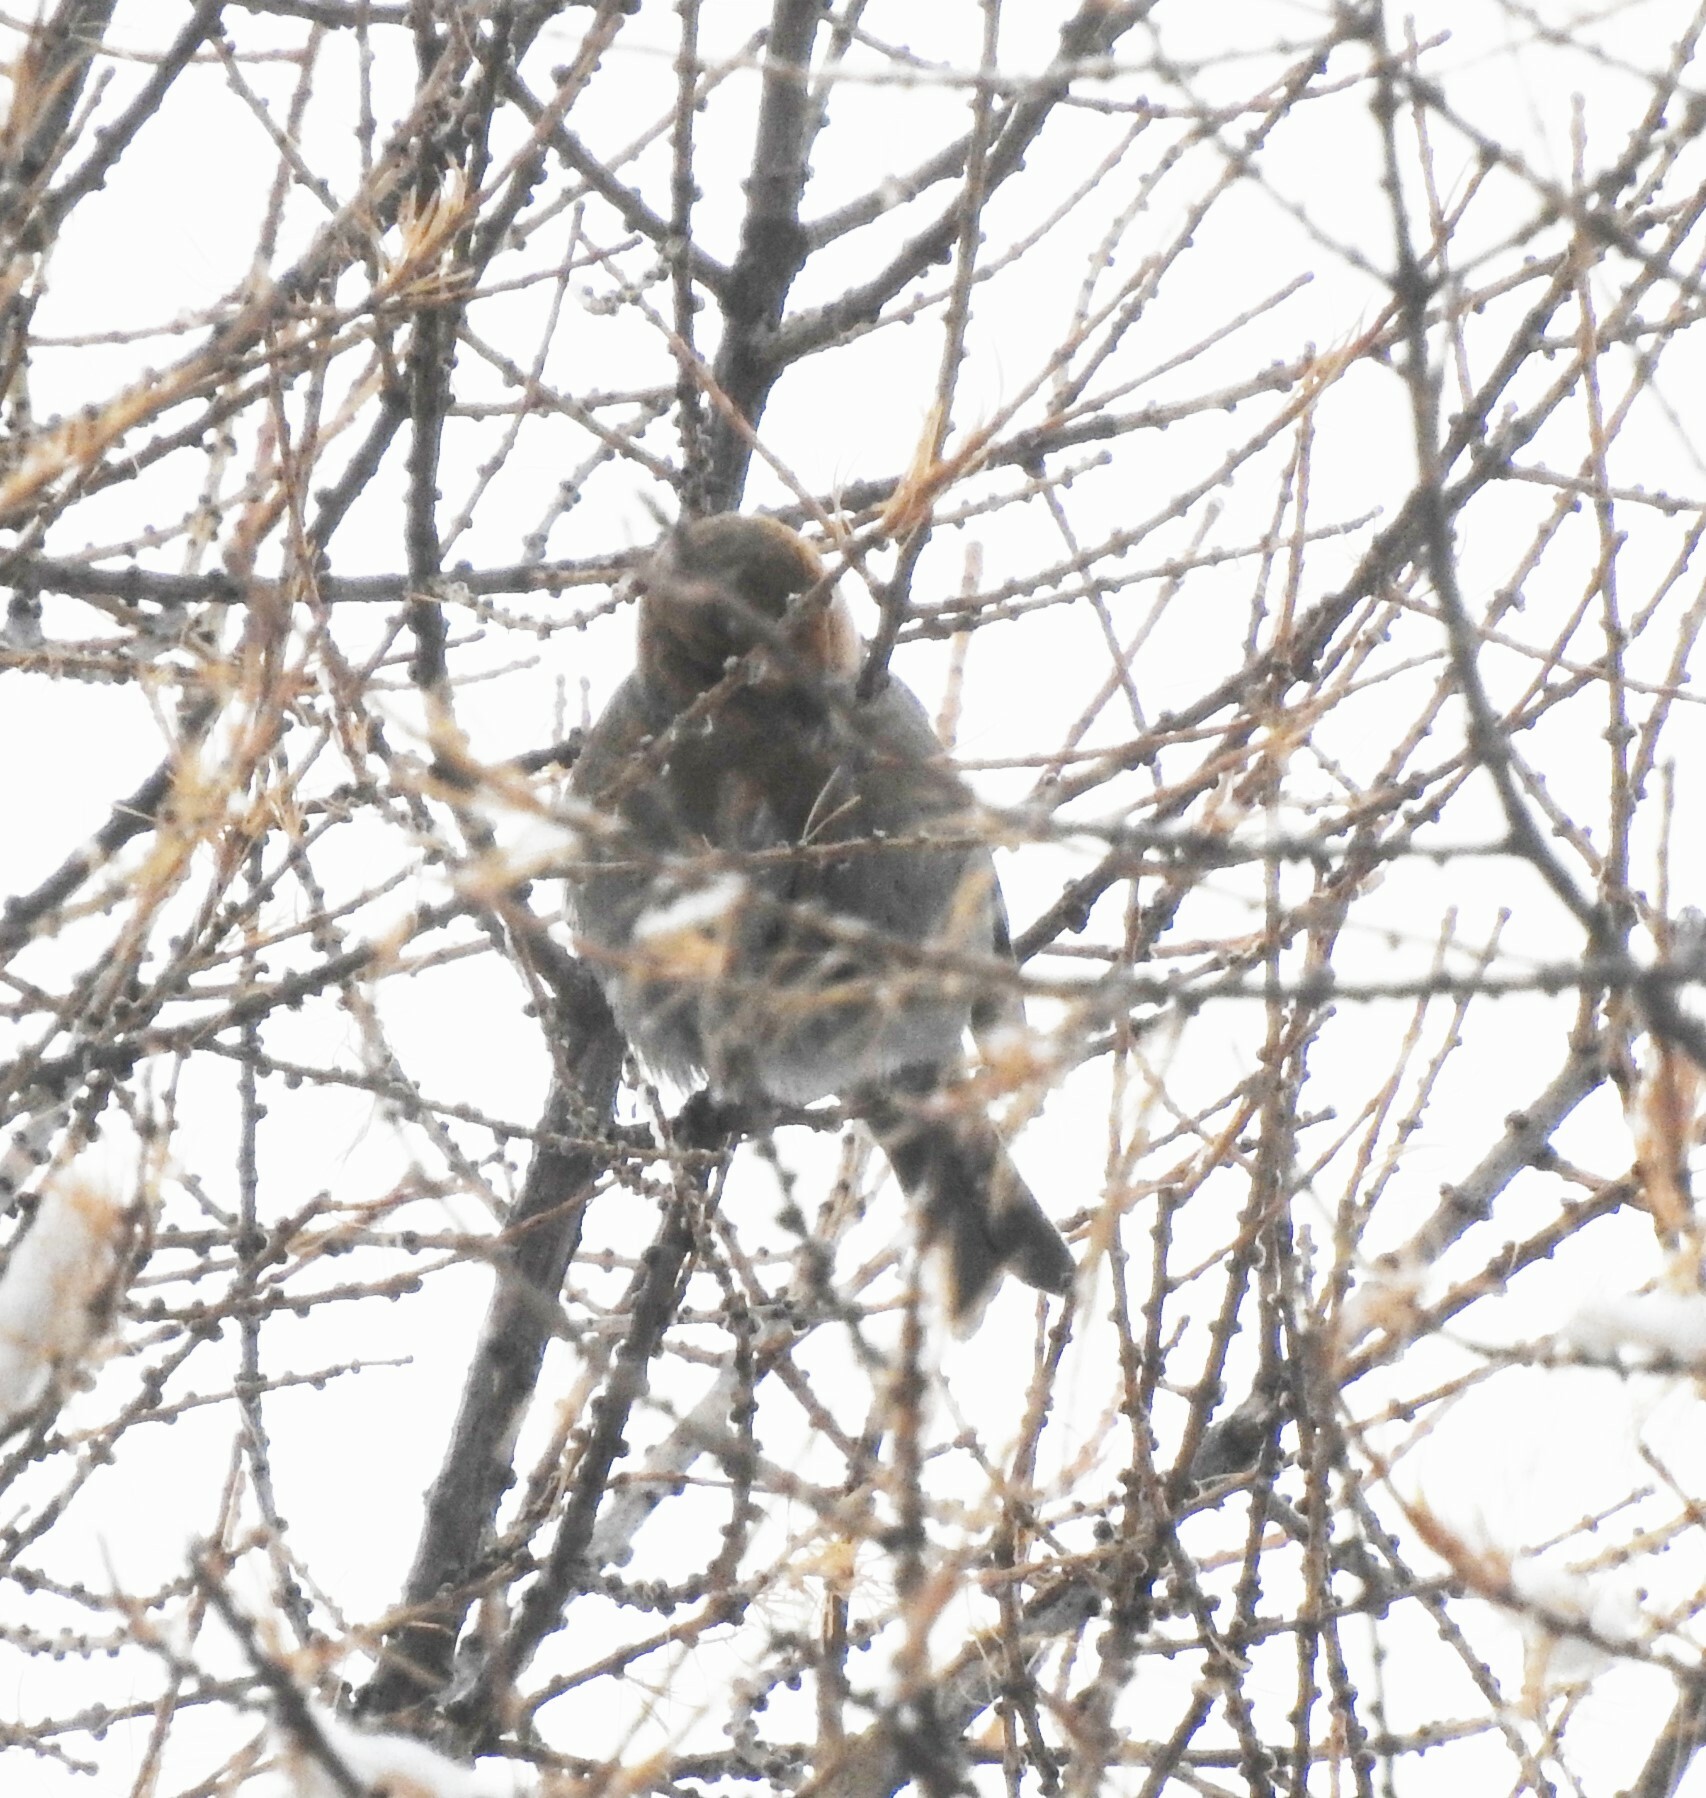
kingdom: Animalia
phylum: Chordata
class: Aves
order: Passeriformes
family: Fringillidae
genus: Pinicola
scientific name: Pinicola enucleator
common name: Pine grosbeak
